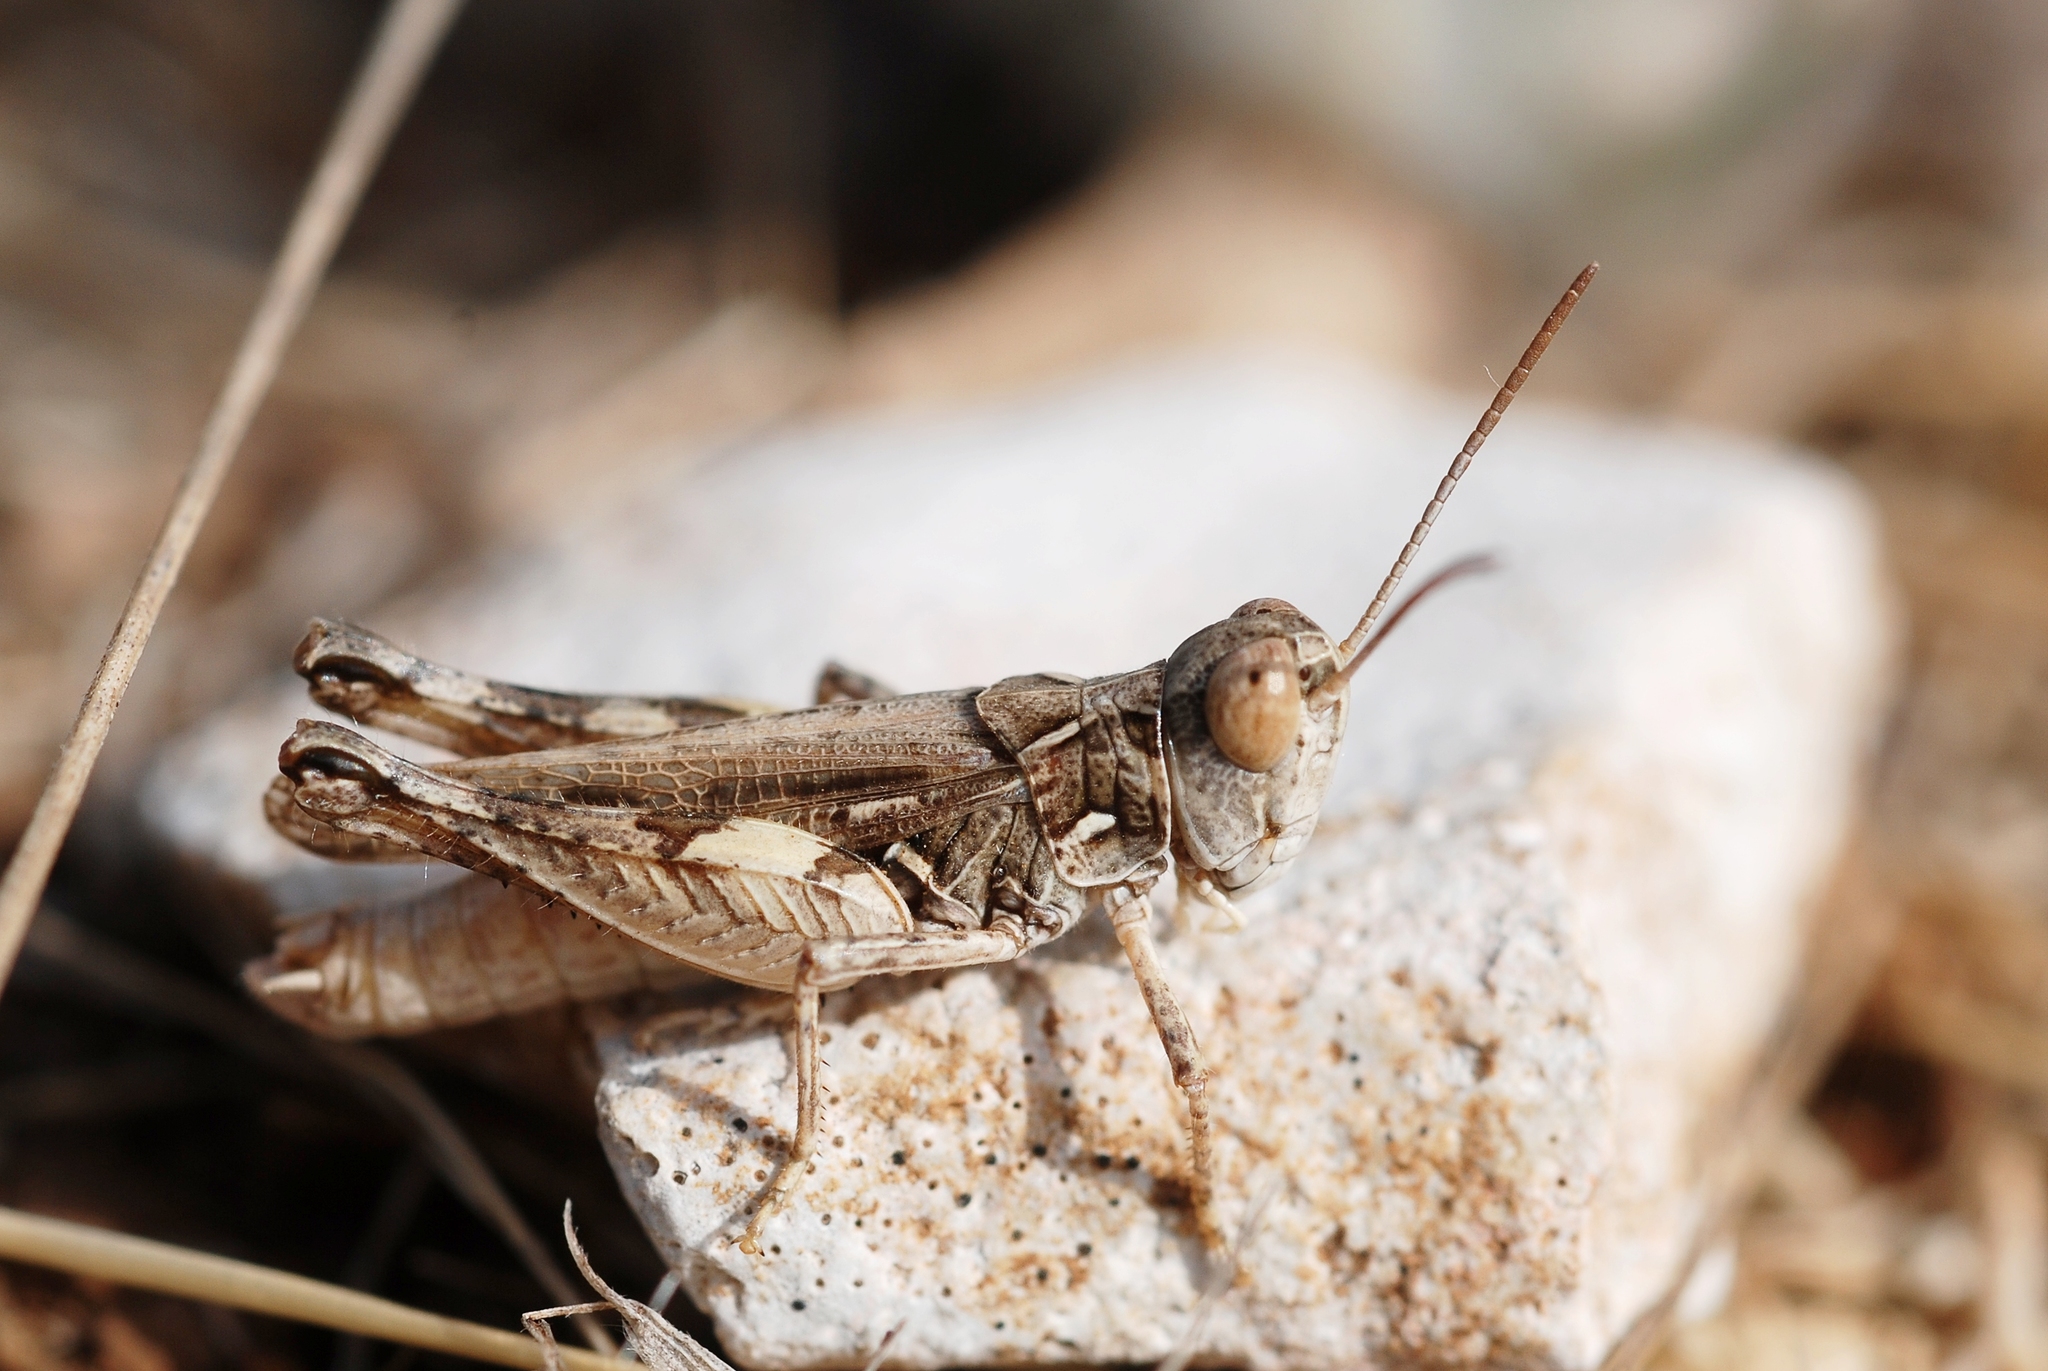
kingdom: Animalia
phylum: Arthropoda
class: Insecta
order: Orthoptera
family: Acrididae
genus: Dociostaurus
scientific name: Dociostaurus jagoi
